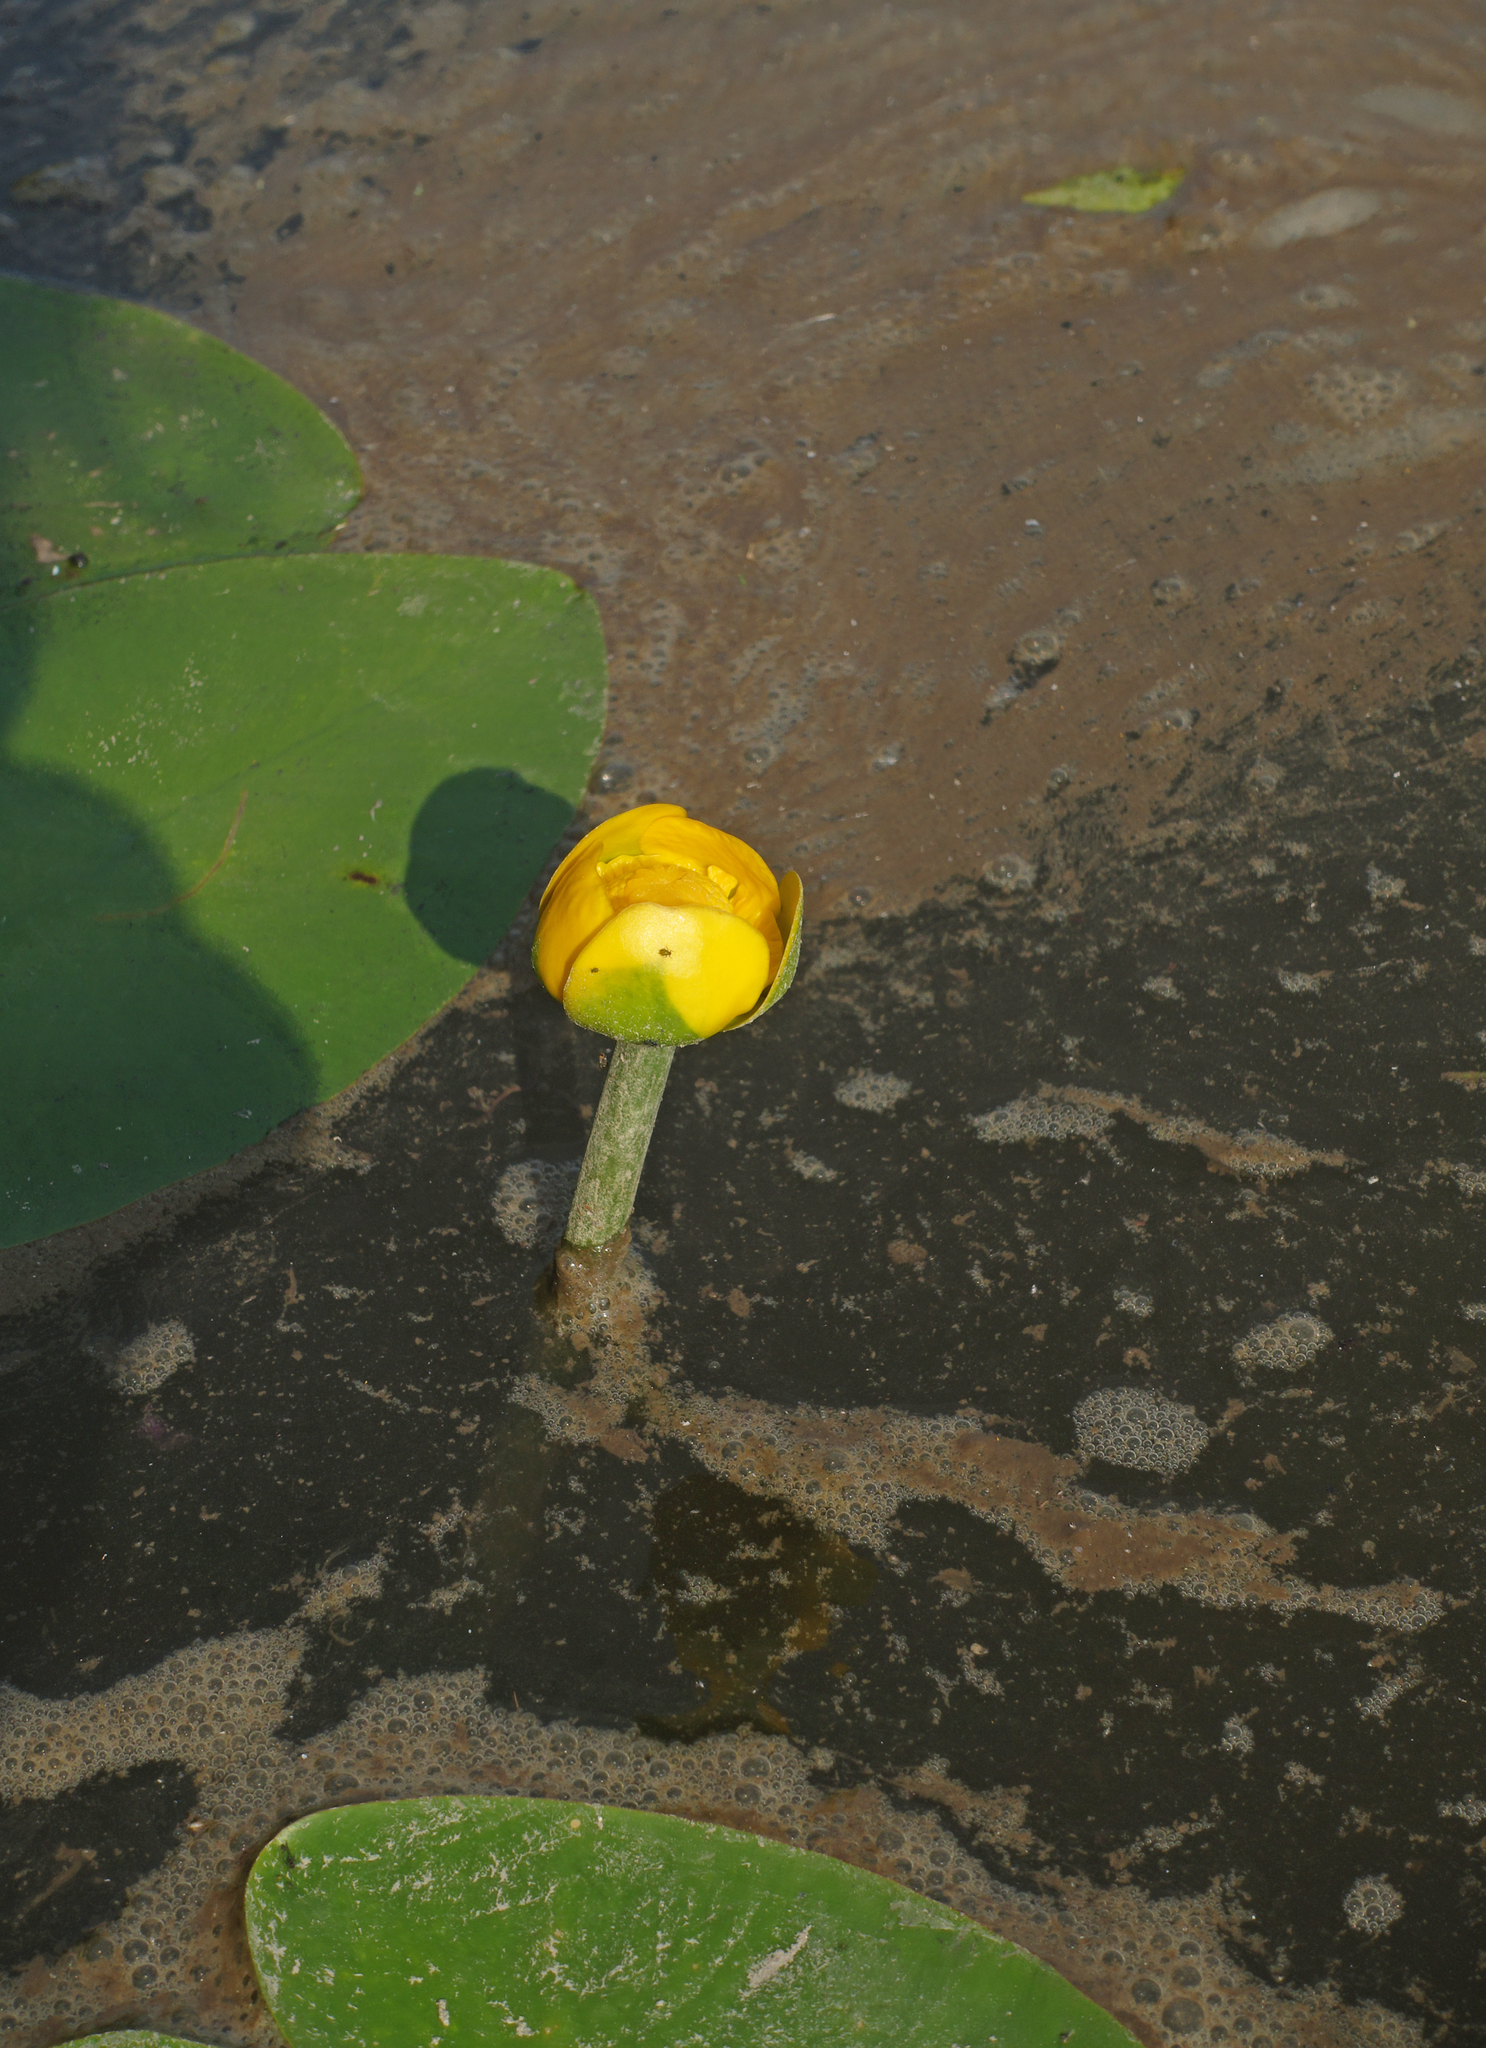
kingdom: Plantae
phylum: Tracheophyta
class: Magnoliopsida
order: Nymphaeales
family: Nymphaeaceae
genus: Nuphar
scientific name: Nuphar pumila
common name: Least water-lily
